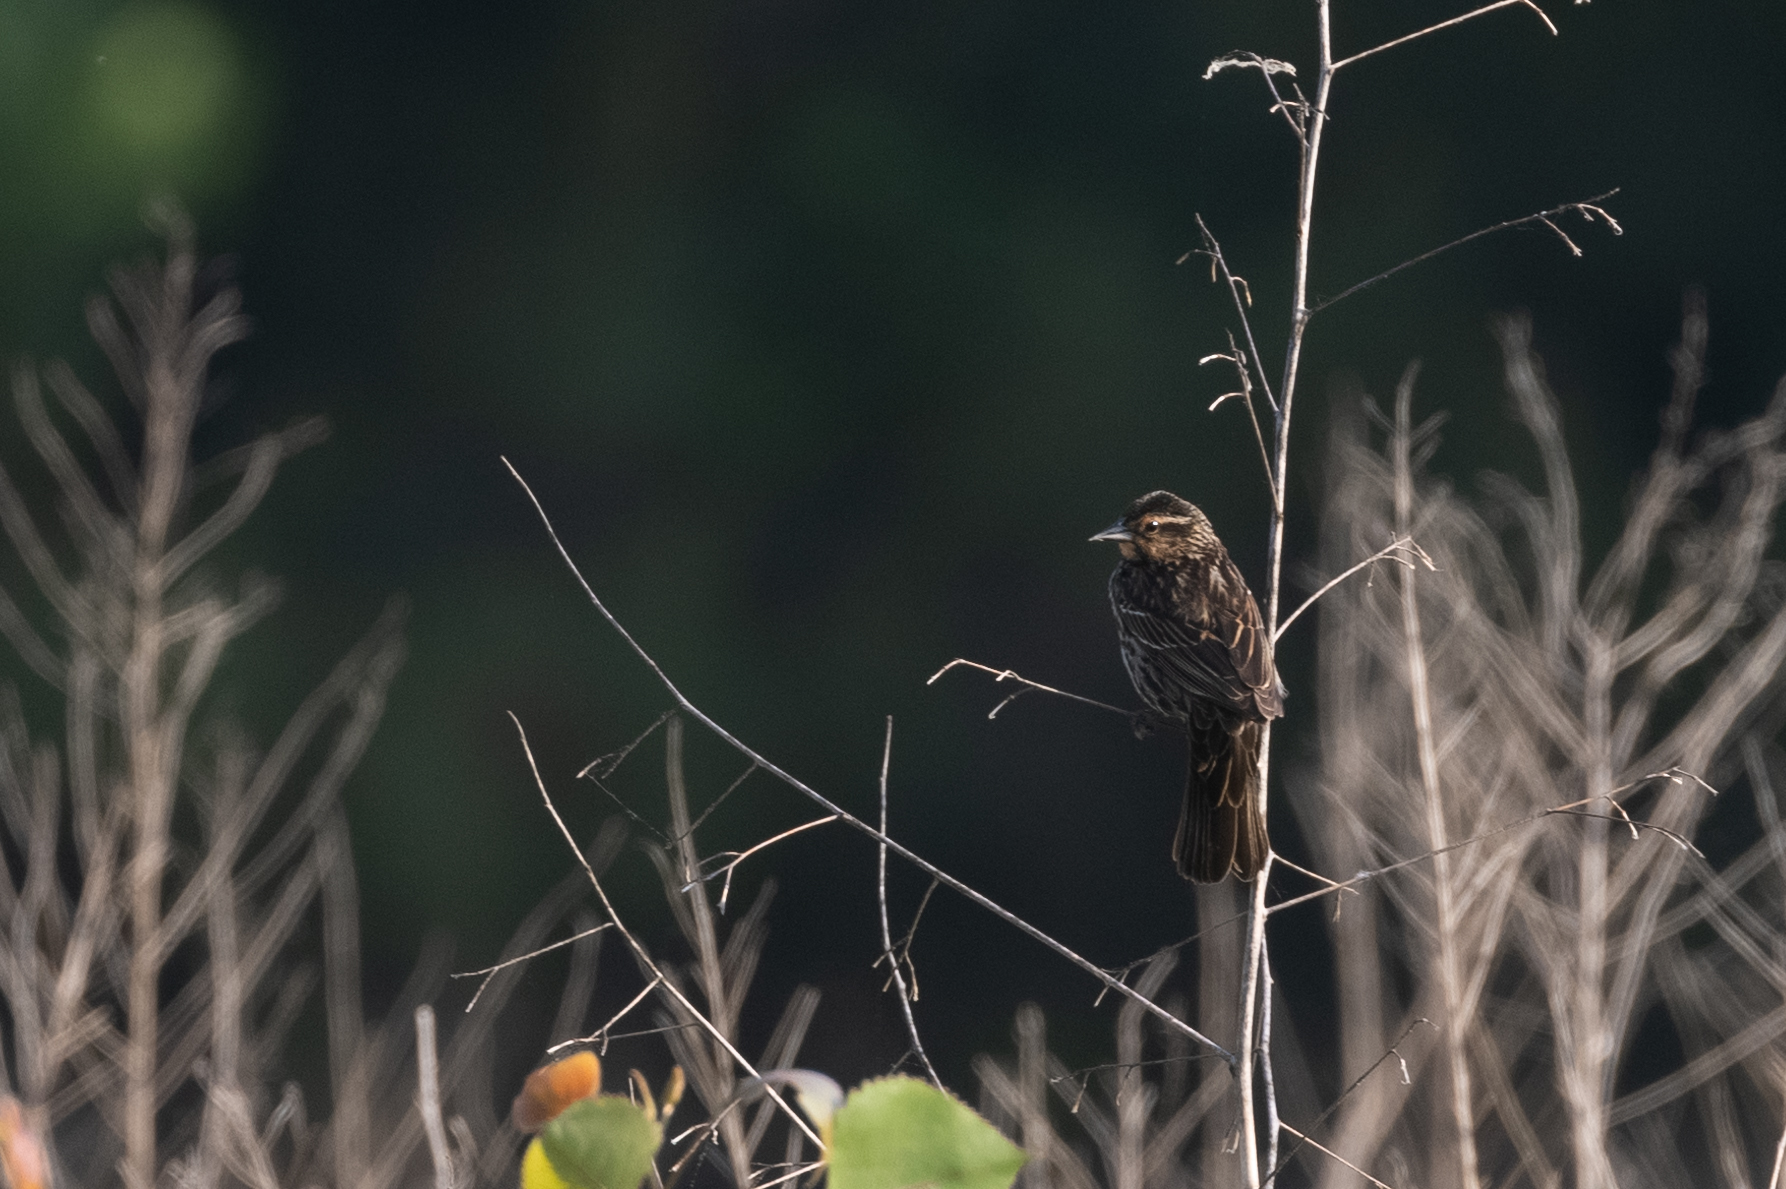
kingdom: Animalia
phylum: Chordata
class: Aves
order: Passeriformes
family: Icteridae
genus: Agelaius
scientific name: Agelaius phoeniceus
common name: Red-winged blackbird
